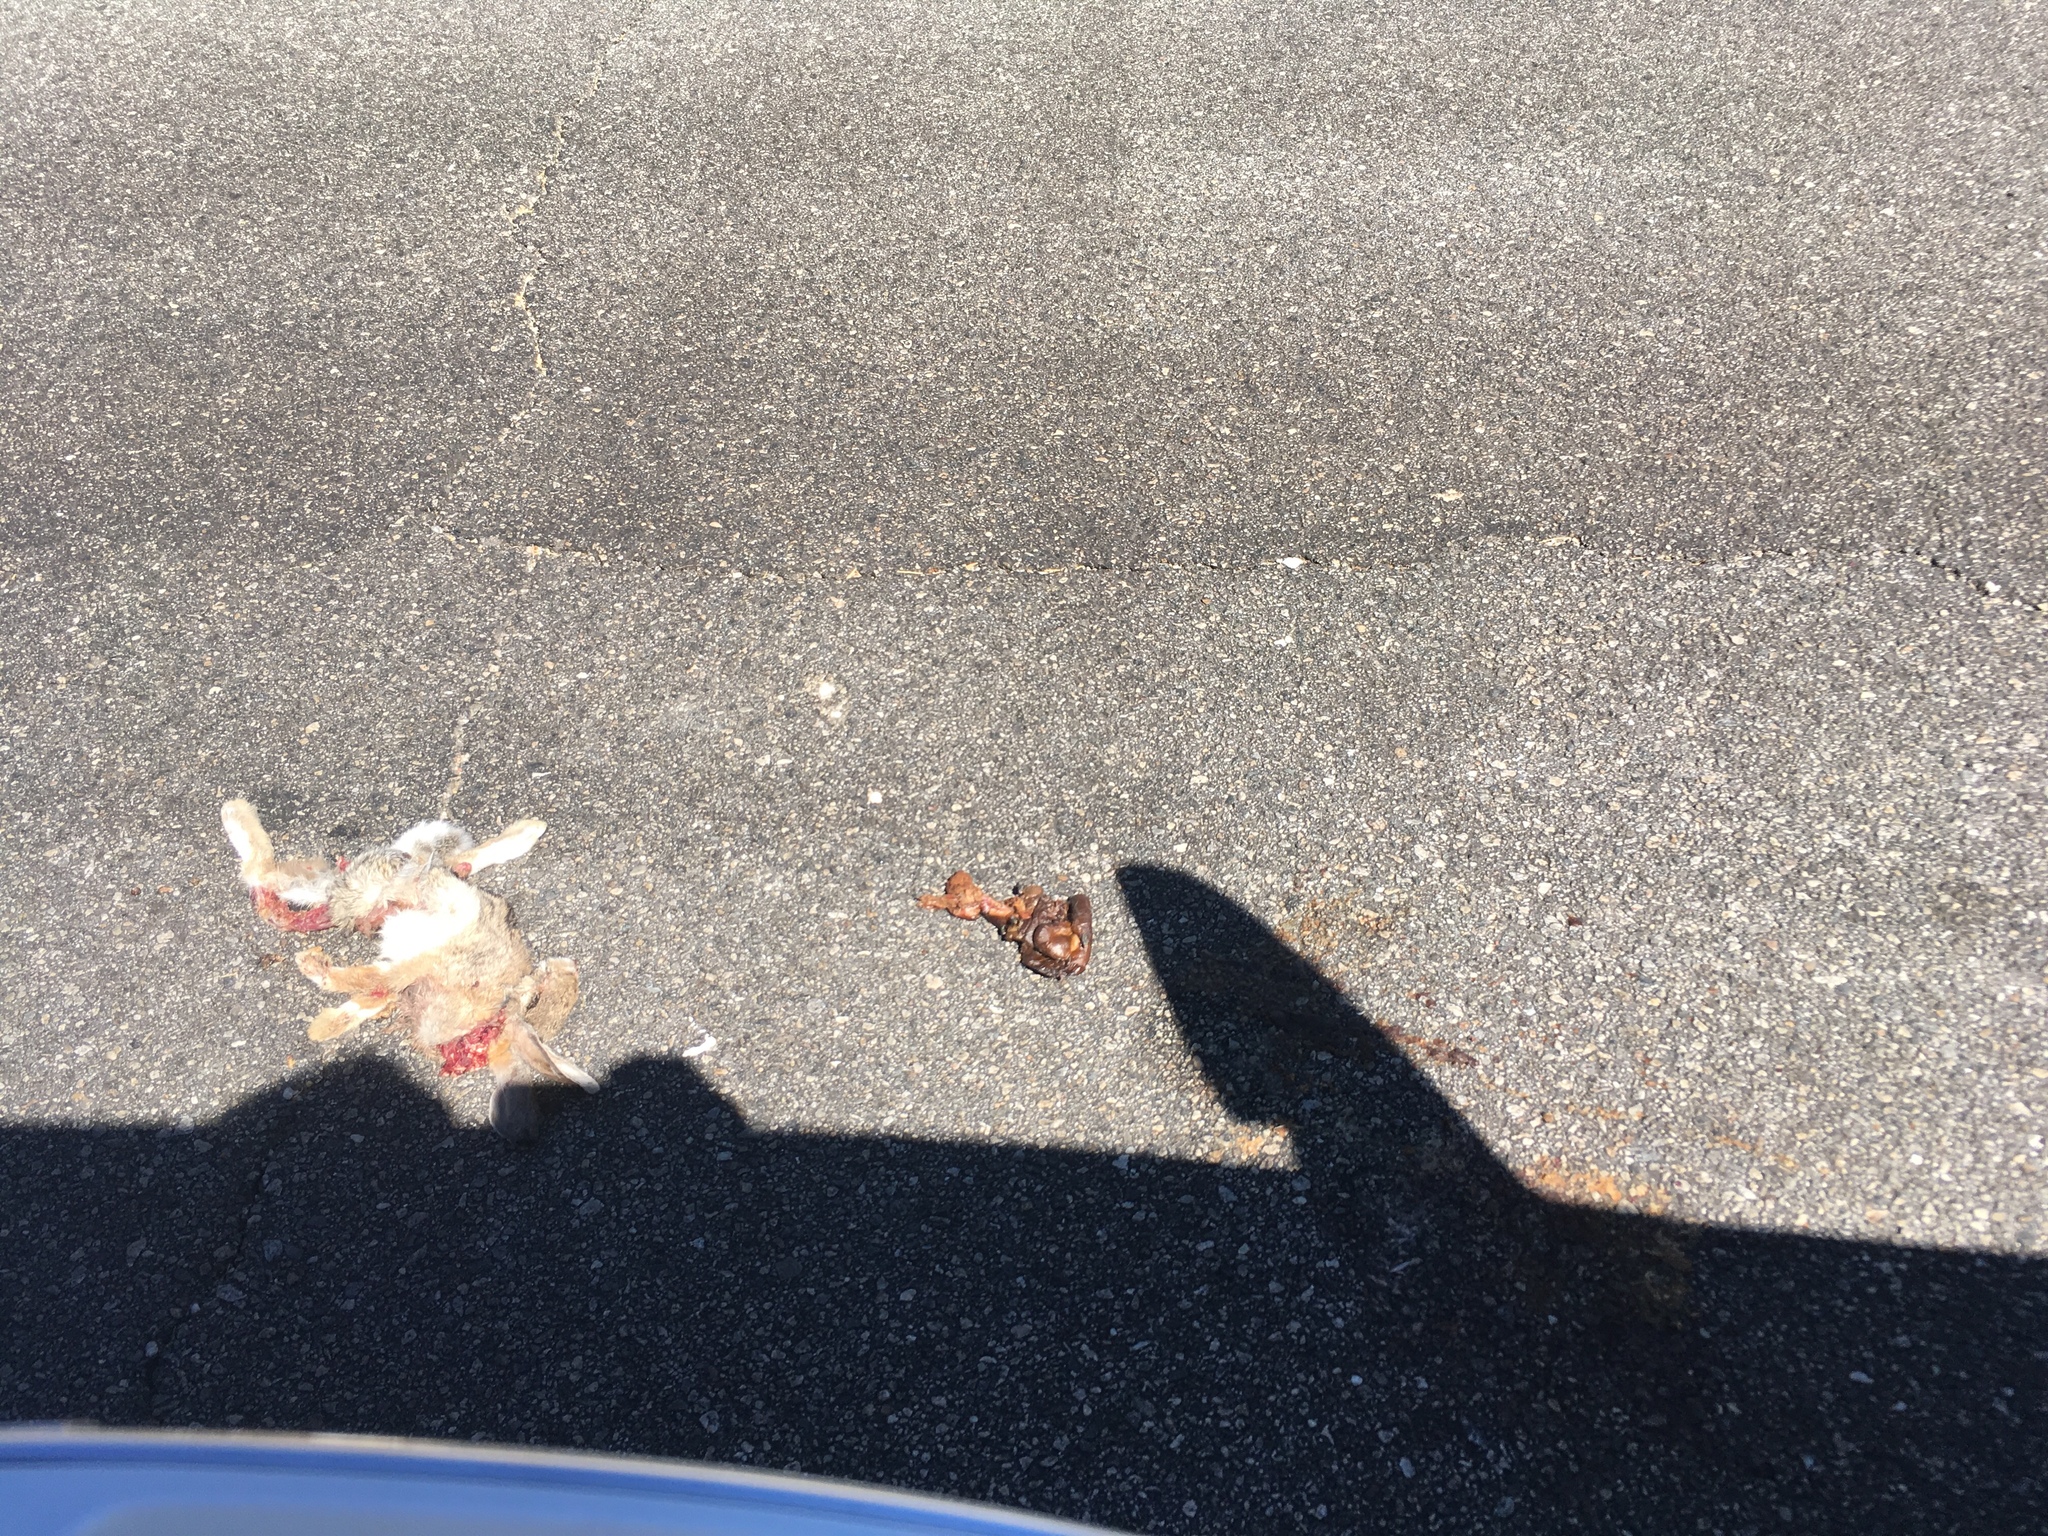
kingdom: Animalia
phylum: Chordata
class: Mammalia
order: Lagomorpha
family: Leporidae
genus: Sylvilagus
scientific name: Sylvilagus audubonii
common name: Desert cottontail
